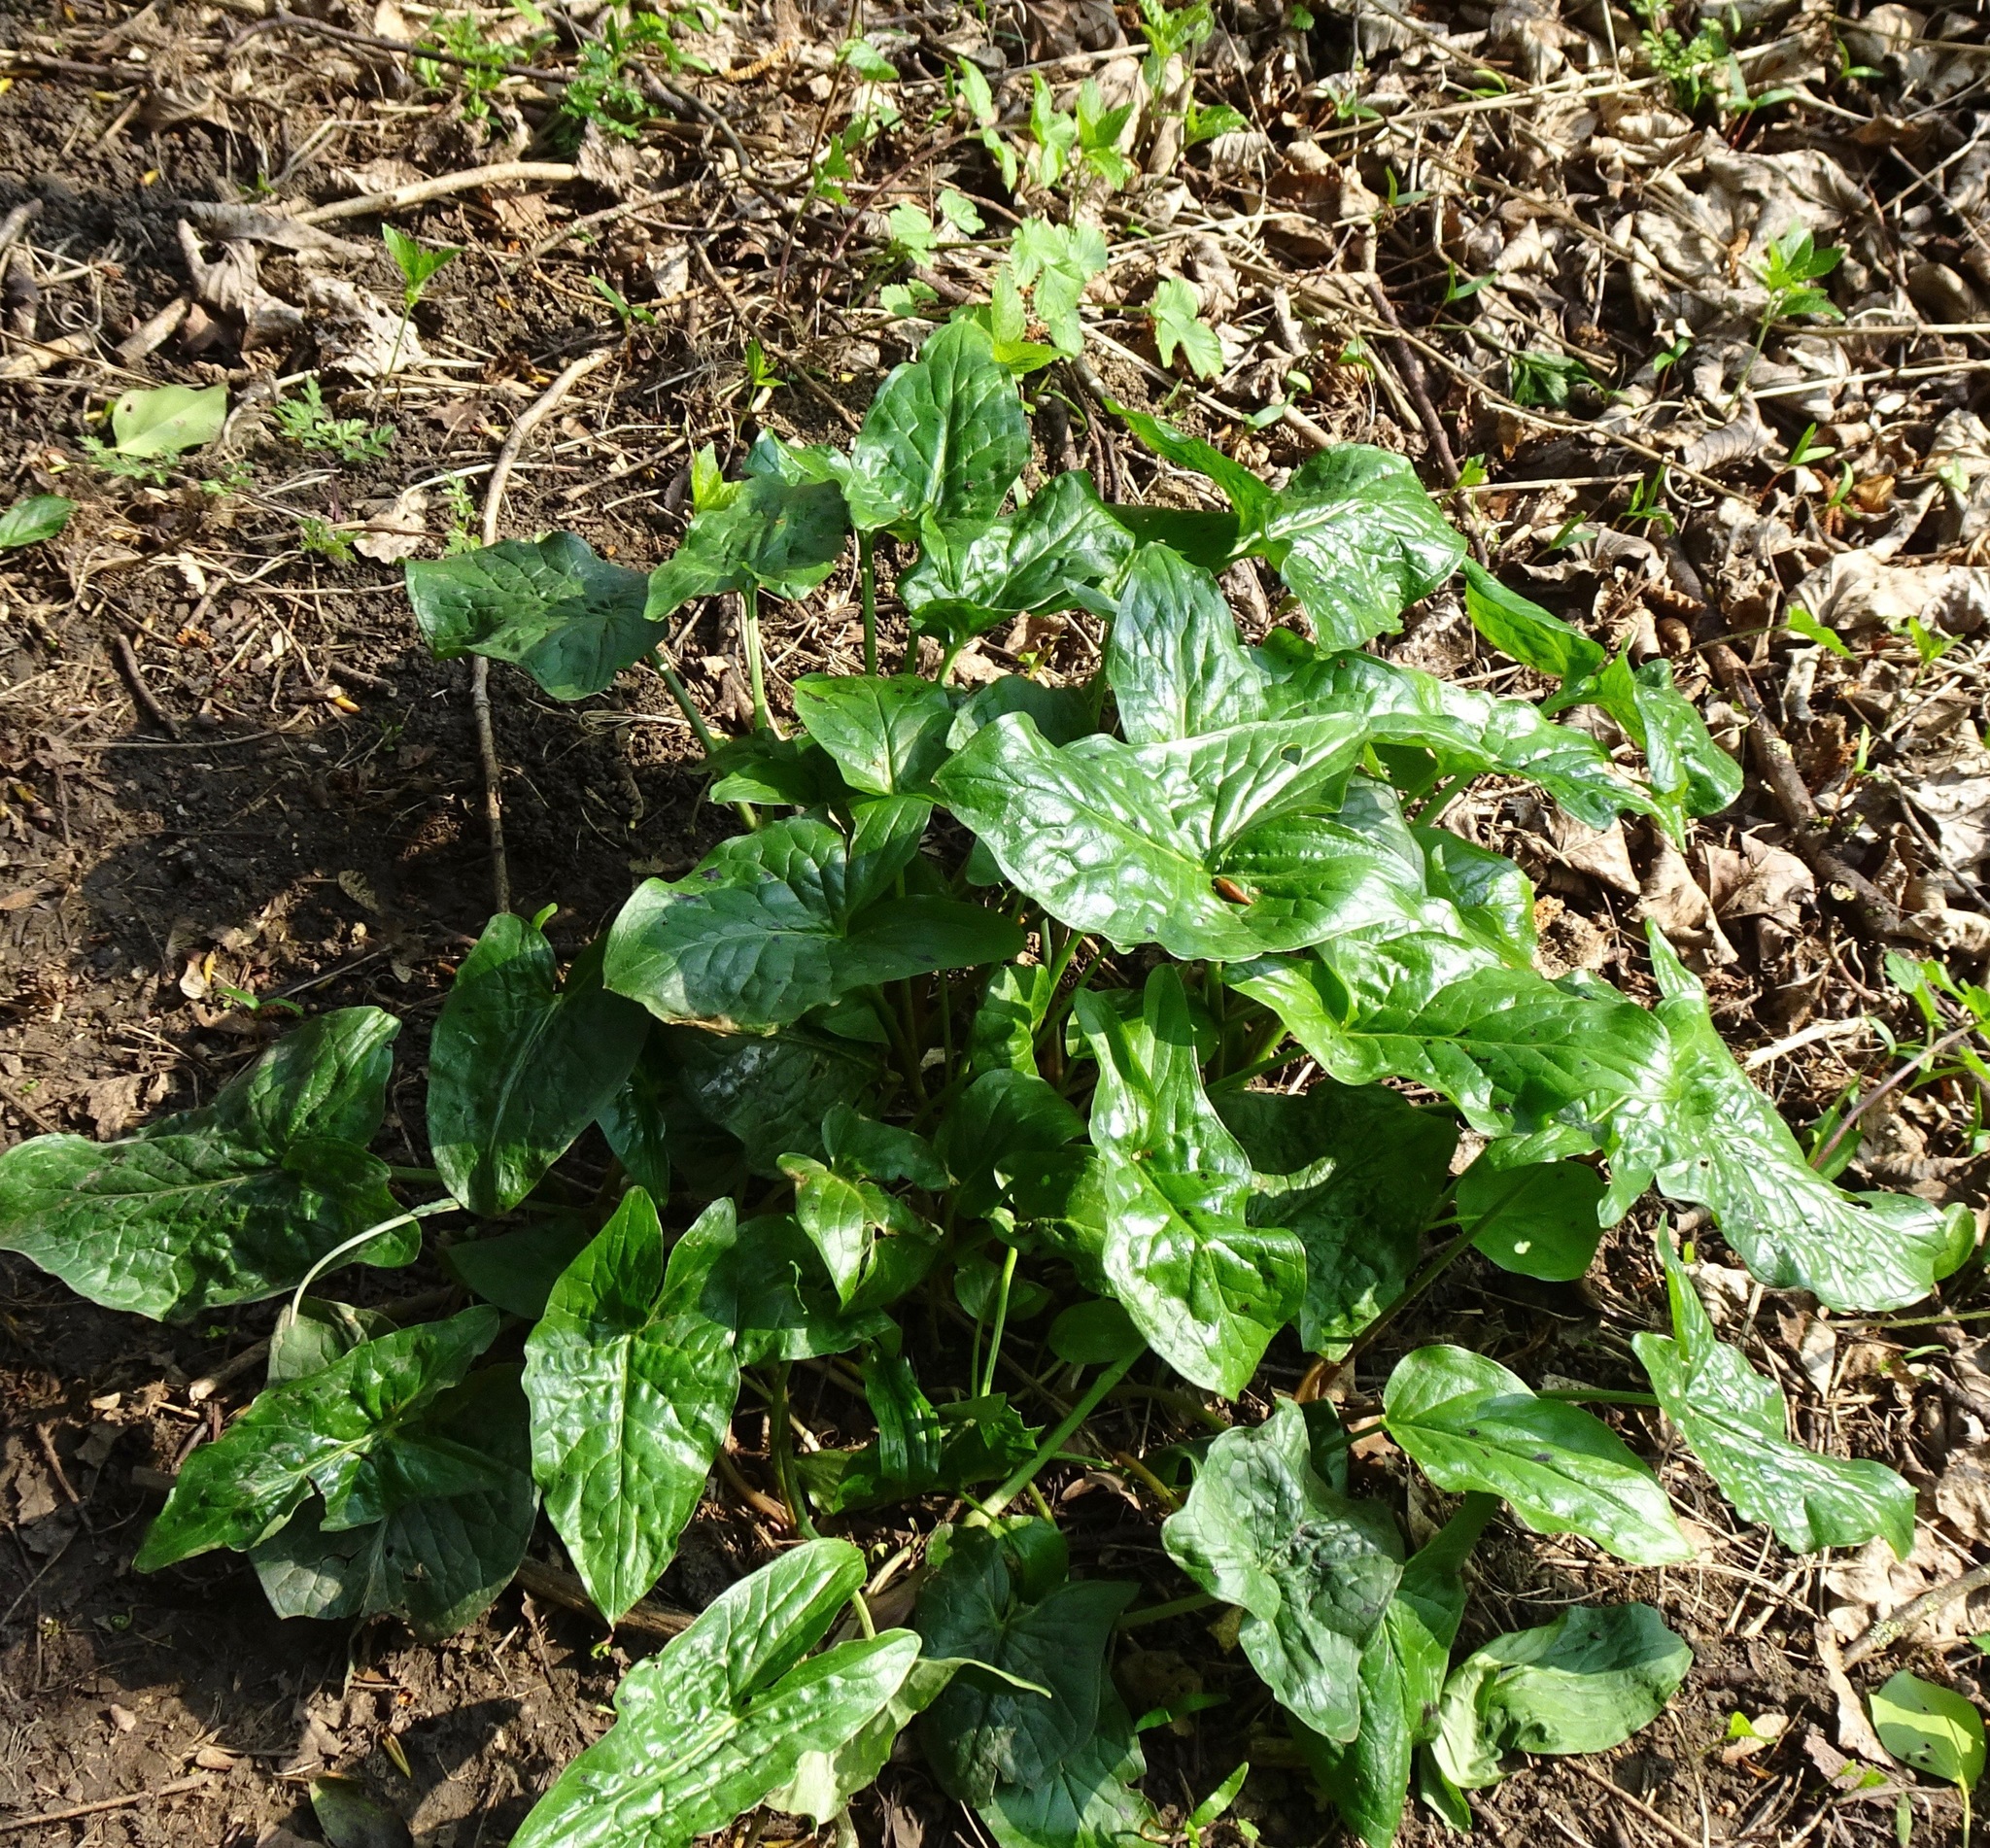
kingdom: Plantae
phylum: Tracheophyta
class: Liliopsida
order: Alismatales
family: Araceae
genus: Arum
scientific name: Arum maculatum
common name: Lords-and-ladies
